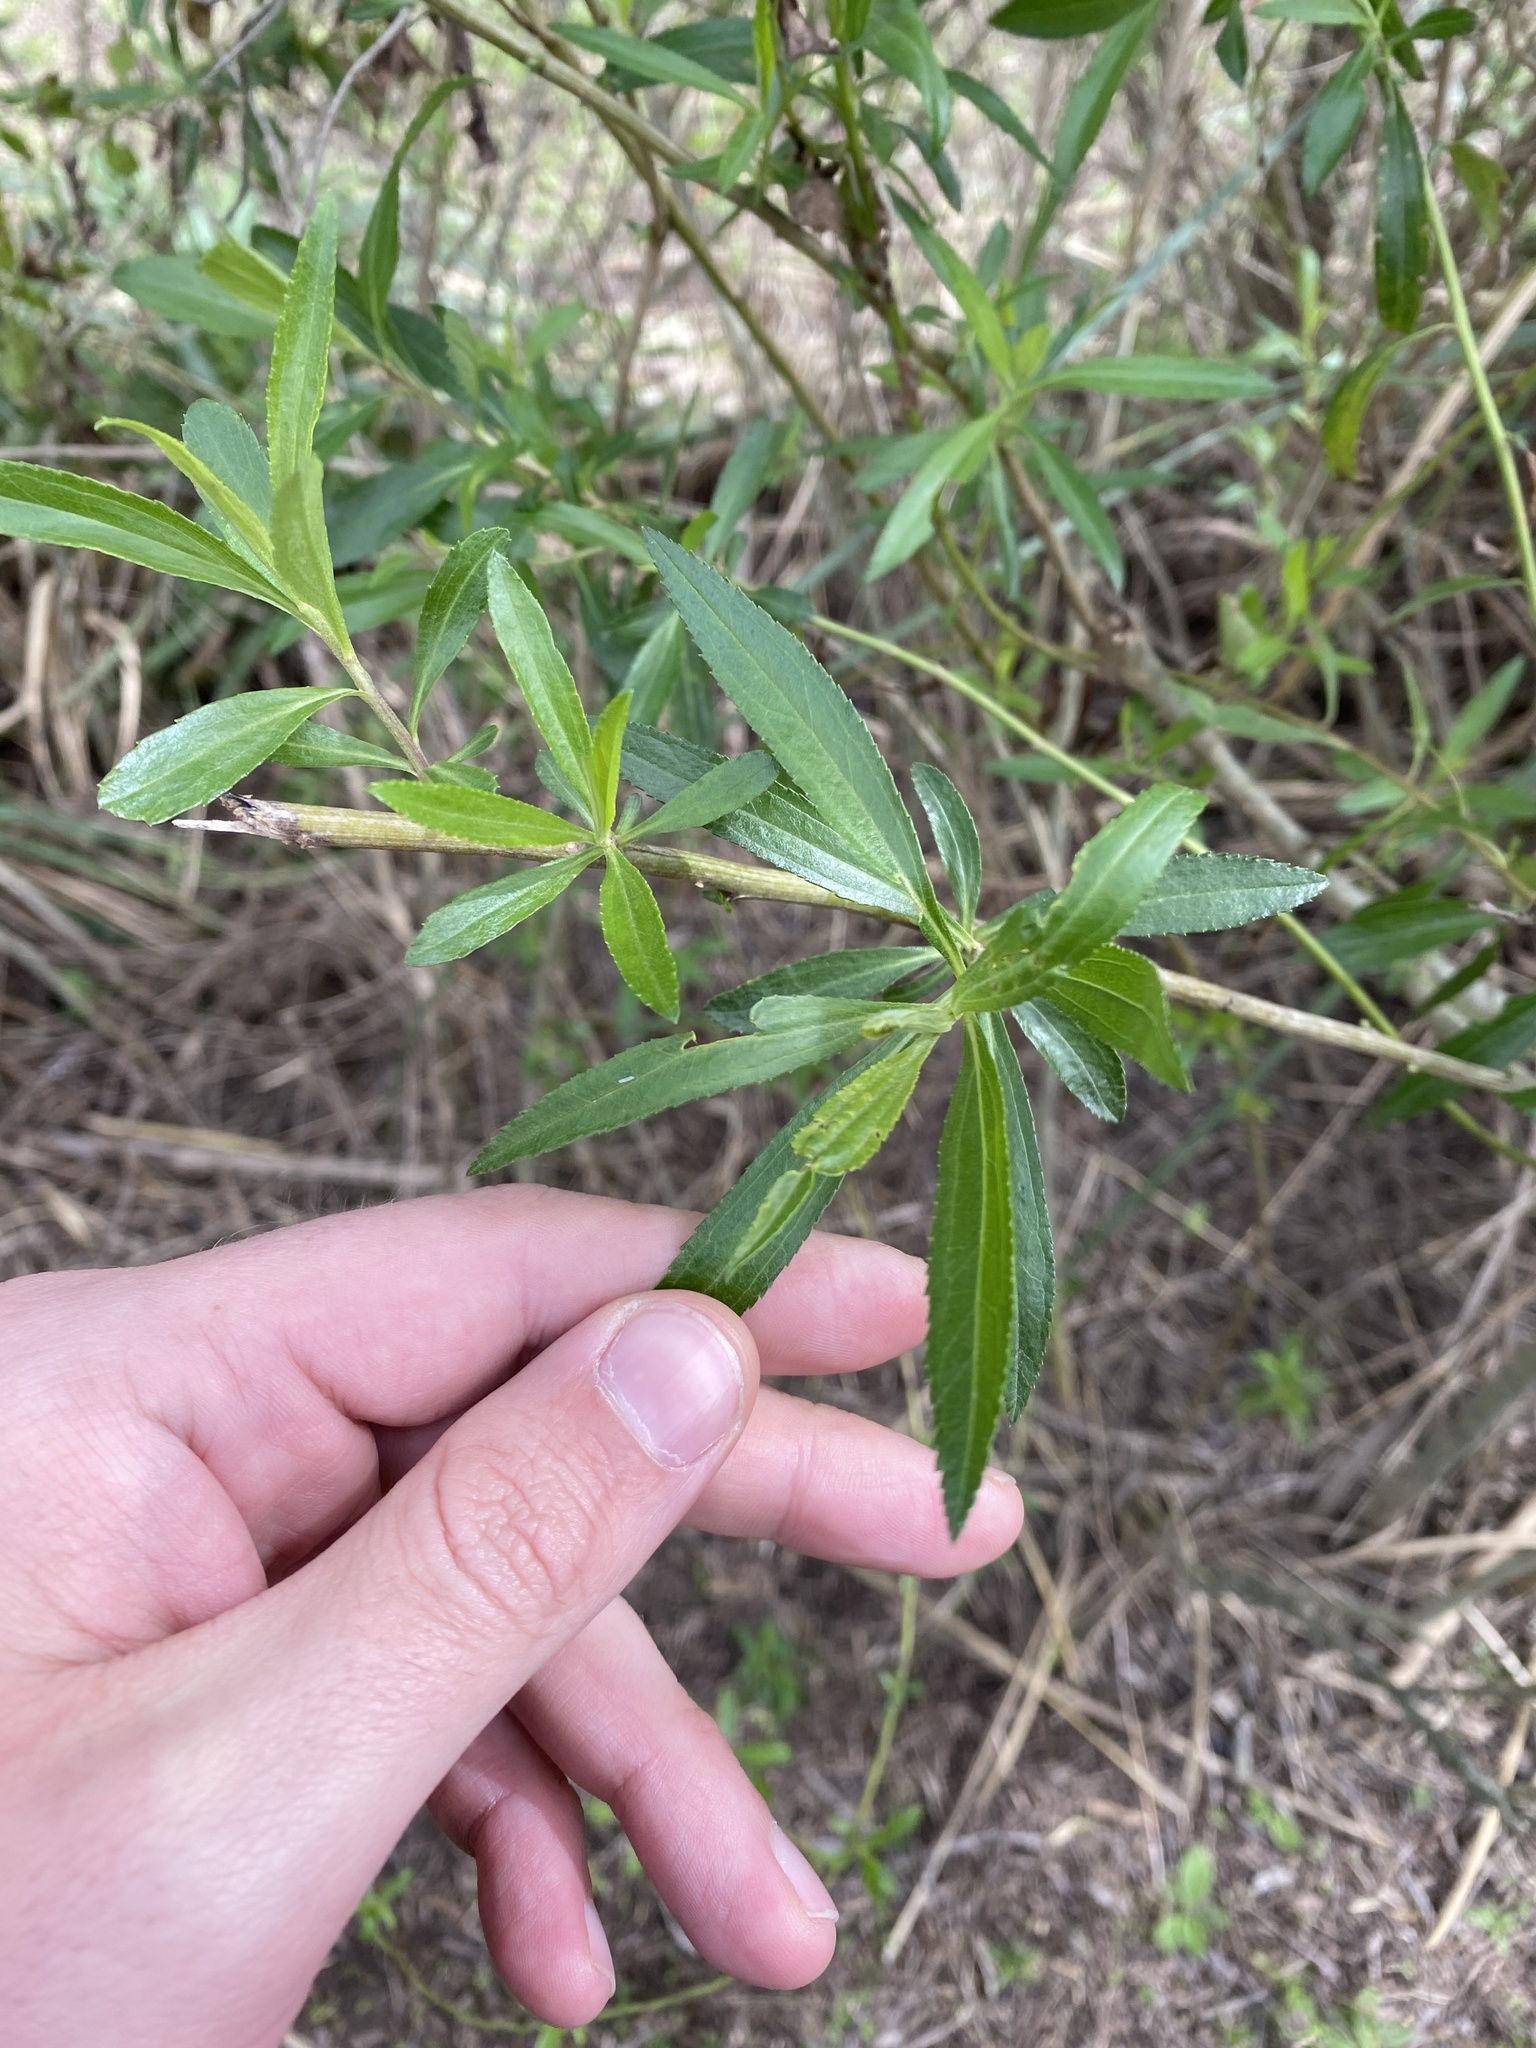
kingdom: Plantae
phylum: Tracheophyta
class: Magnoliopsida
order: Asterales
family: Asteraceae
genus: Baccharis
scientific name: Baccharis punctulata
